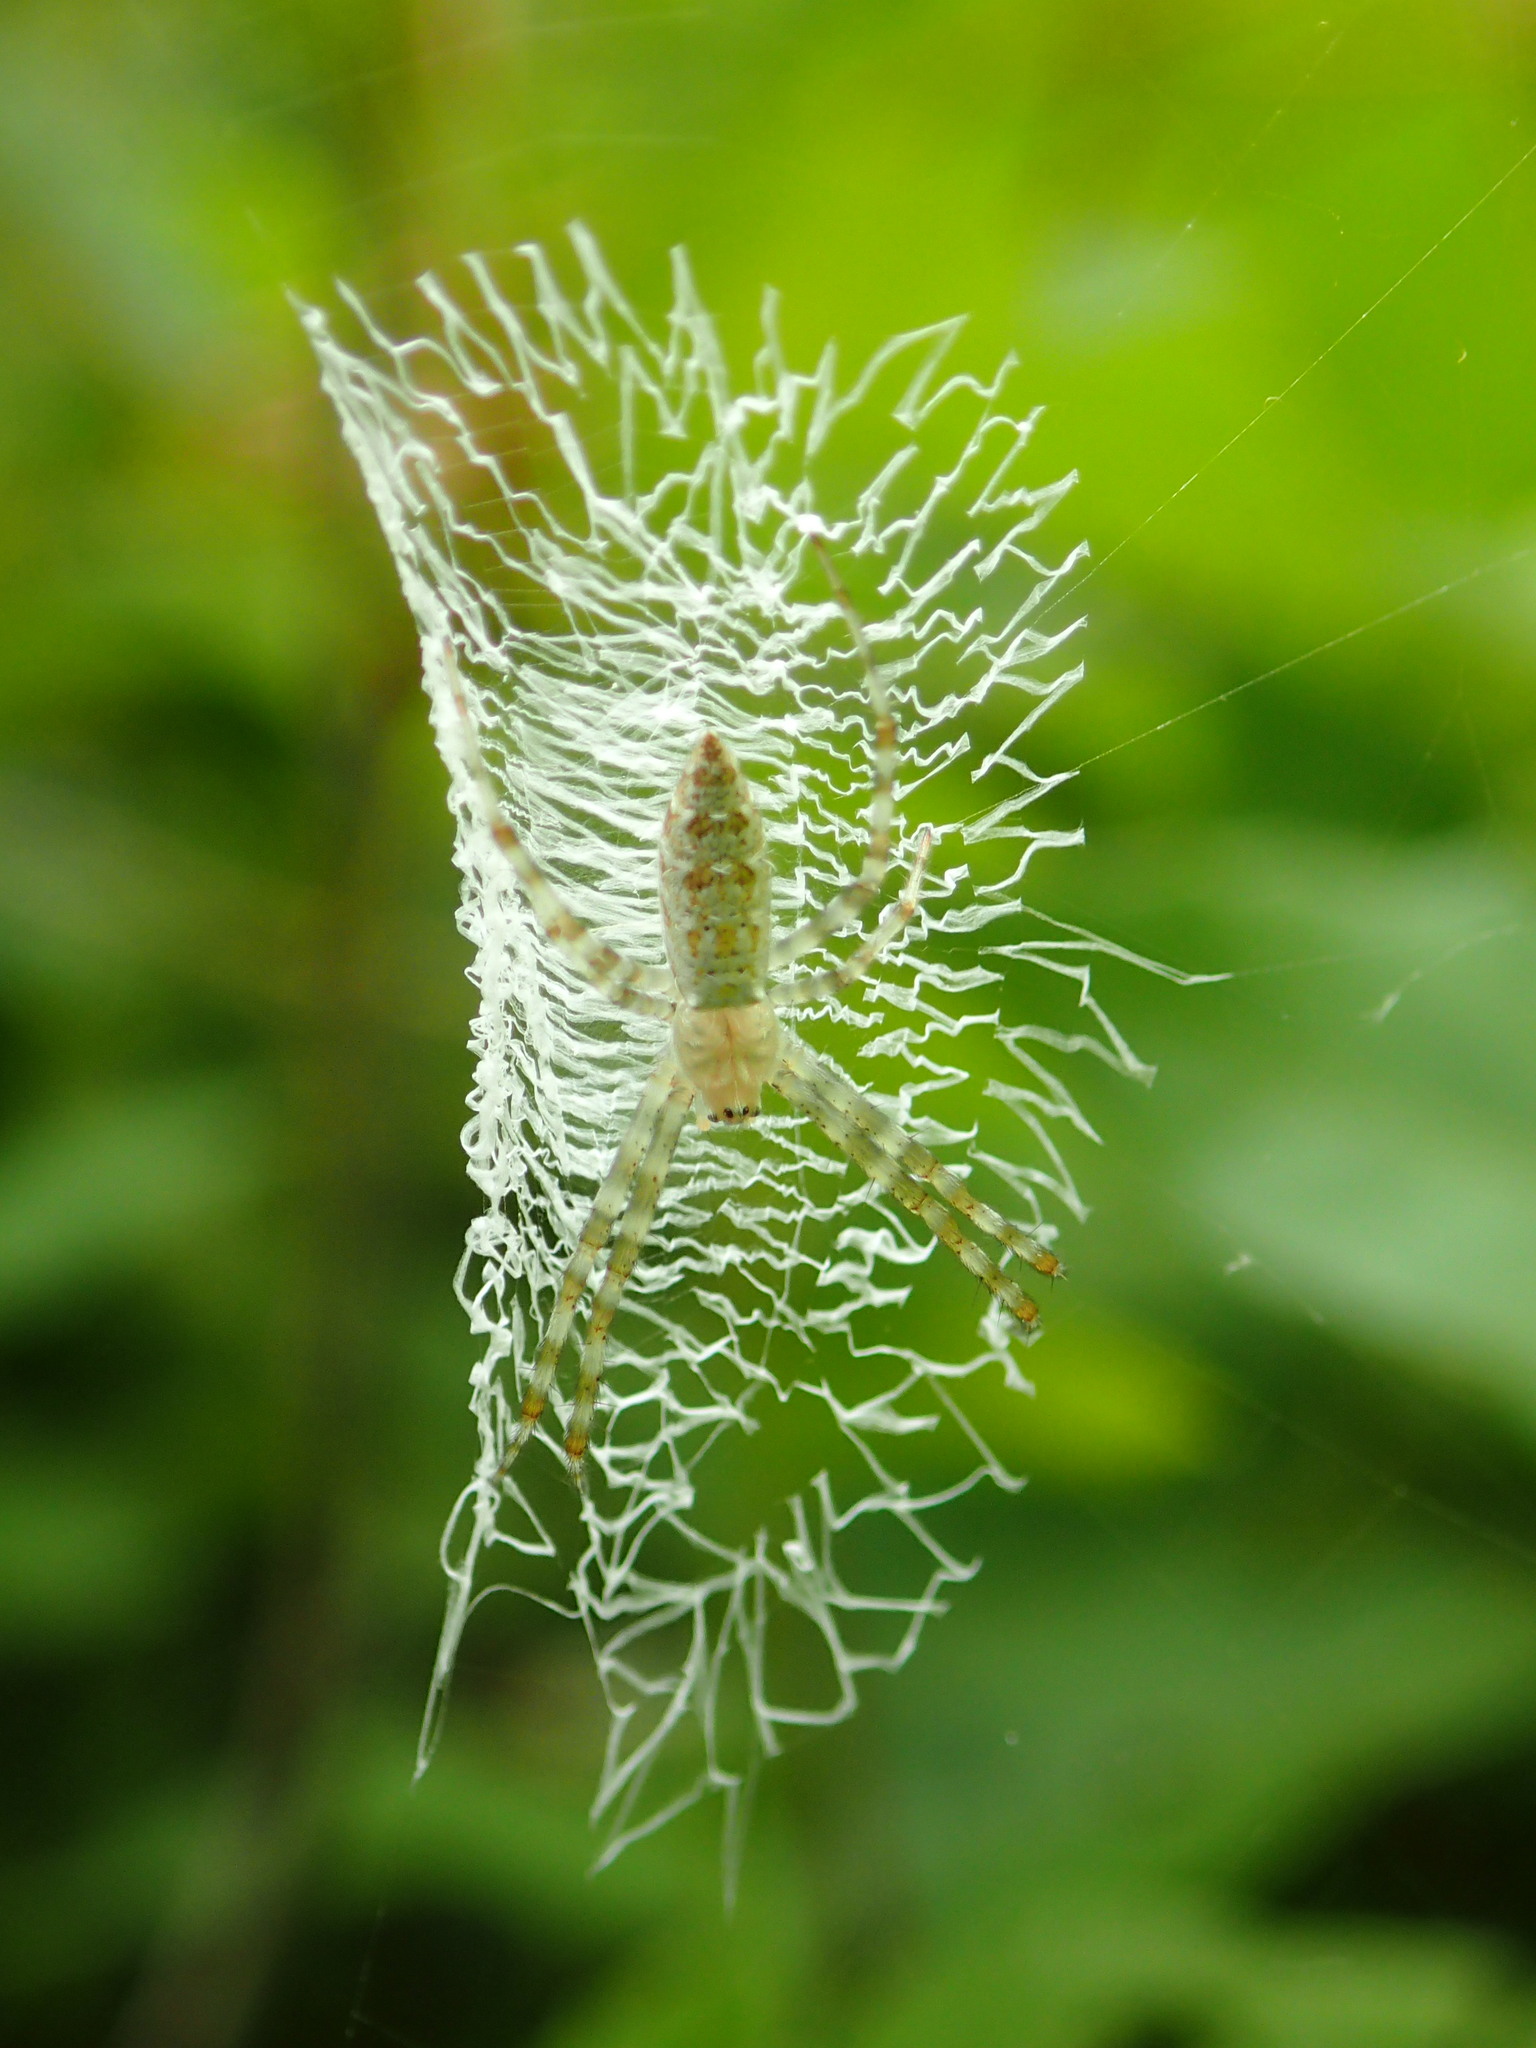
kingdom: Animalia
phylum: Arthropoda
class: Arachnida
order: Araneae
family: Araneidae
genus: Argiope
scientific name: Argiope aurantia
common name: Orb weavers
